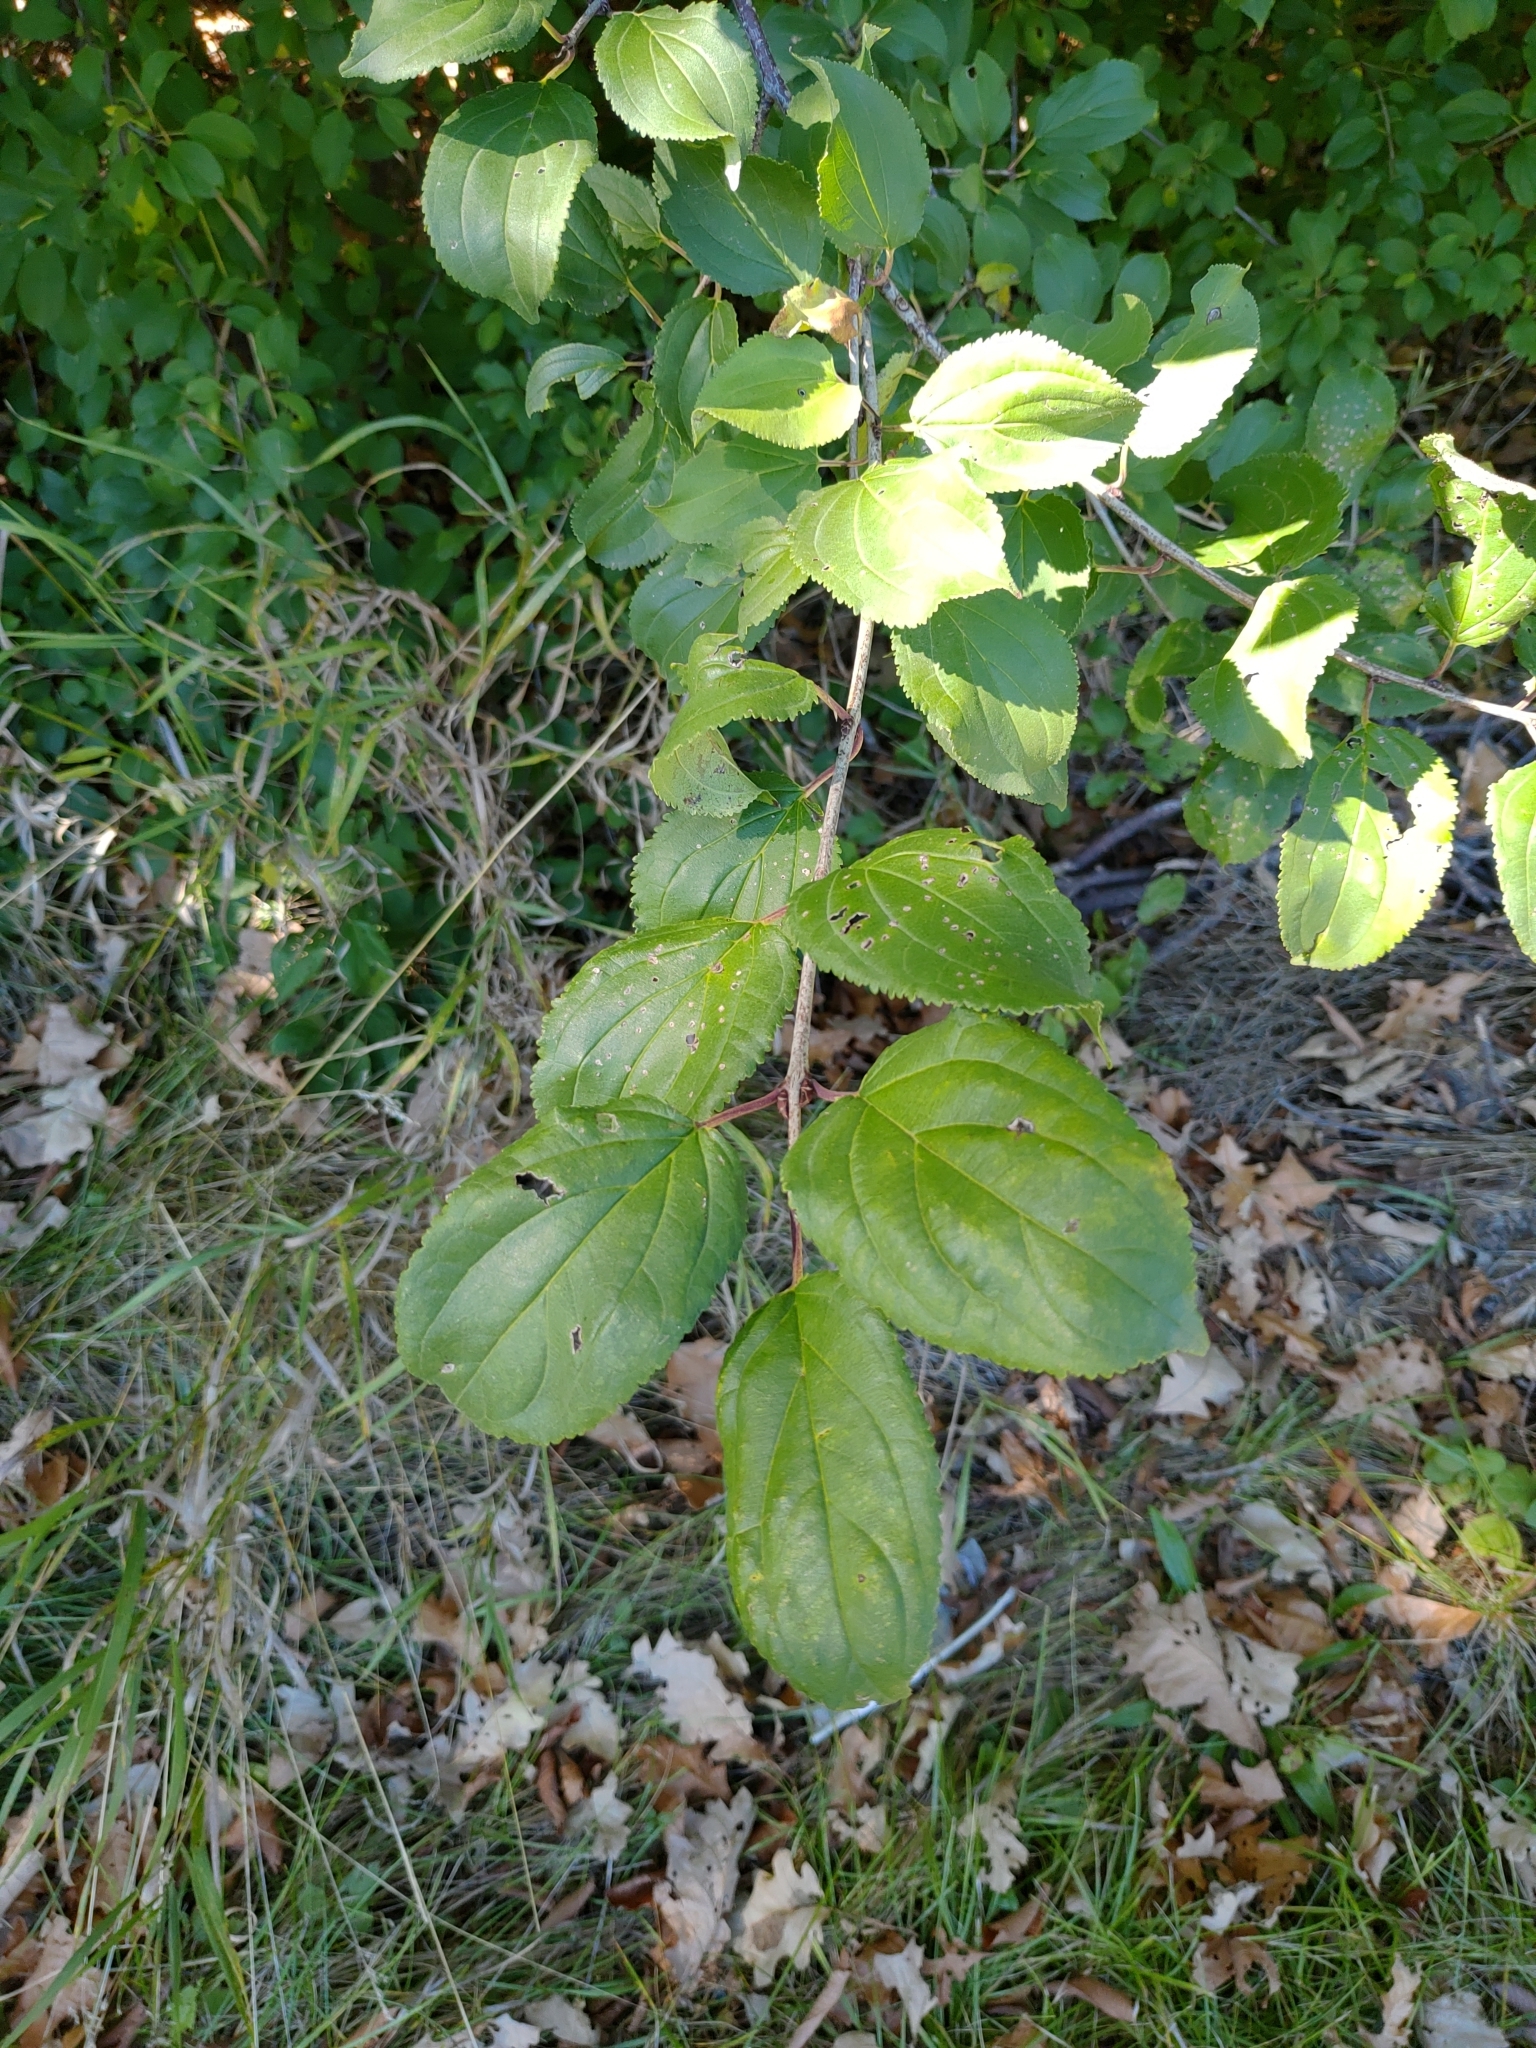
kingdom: Plantae
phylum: Tracheophyta
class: Magnoliopsida
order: Rosales
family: Rhamnaceae
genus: Rhamnus
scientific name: Rhamnus cathartica
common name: Common buckthorn
